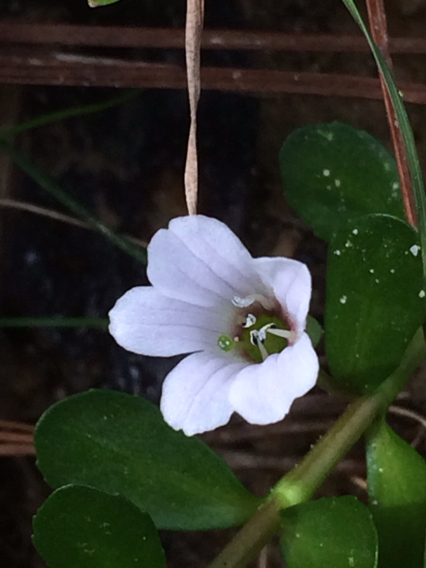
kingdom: Plantae
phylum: Tracheophyta
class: Magnoliopsida
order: Lamiales
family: Plantaginaceae
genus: Bacopa
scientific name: Bacopa monnieri
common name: Indian-pennywort
